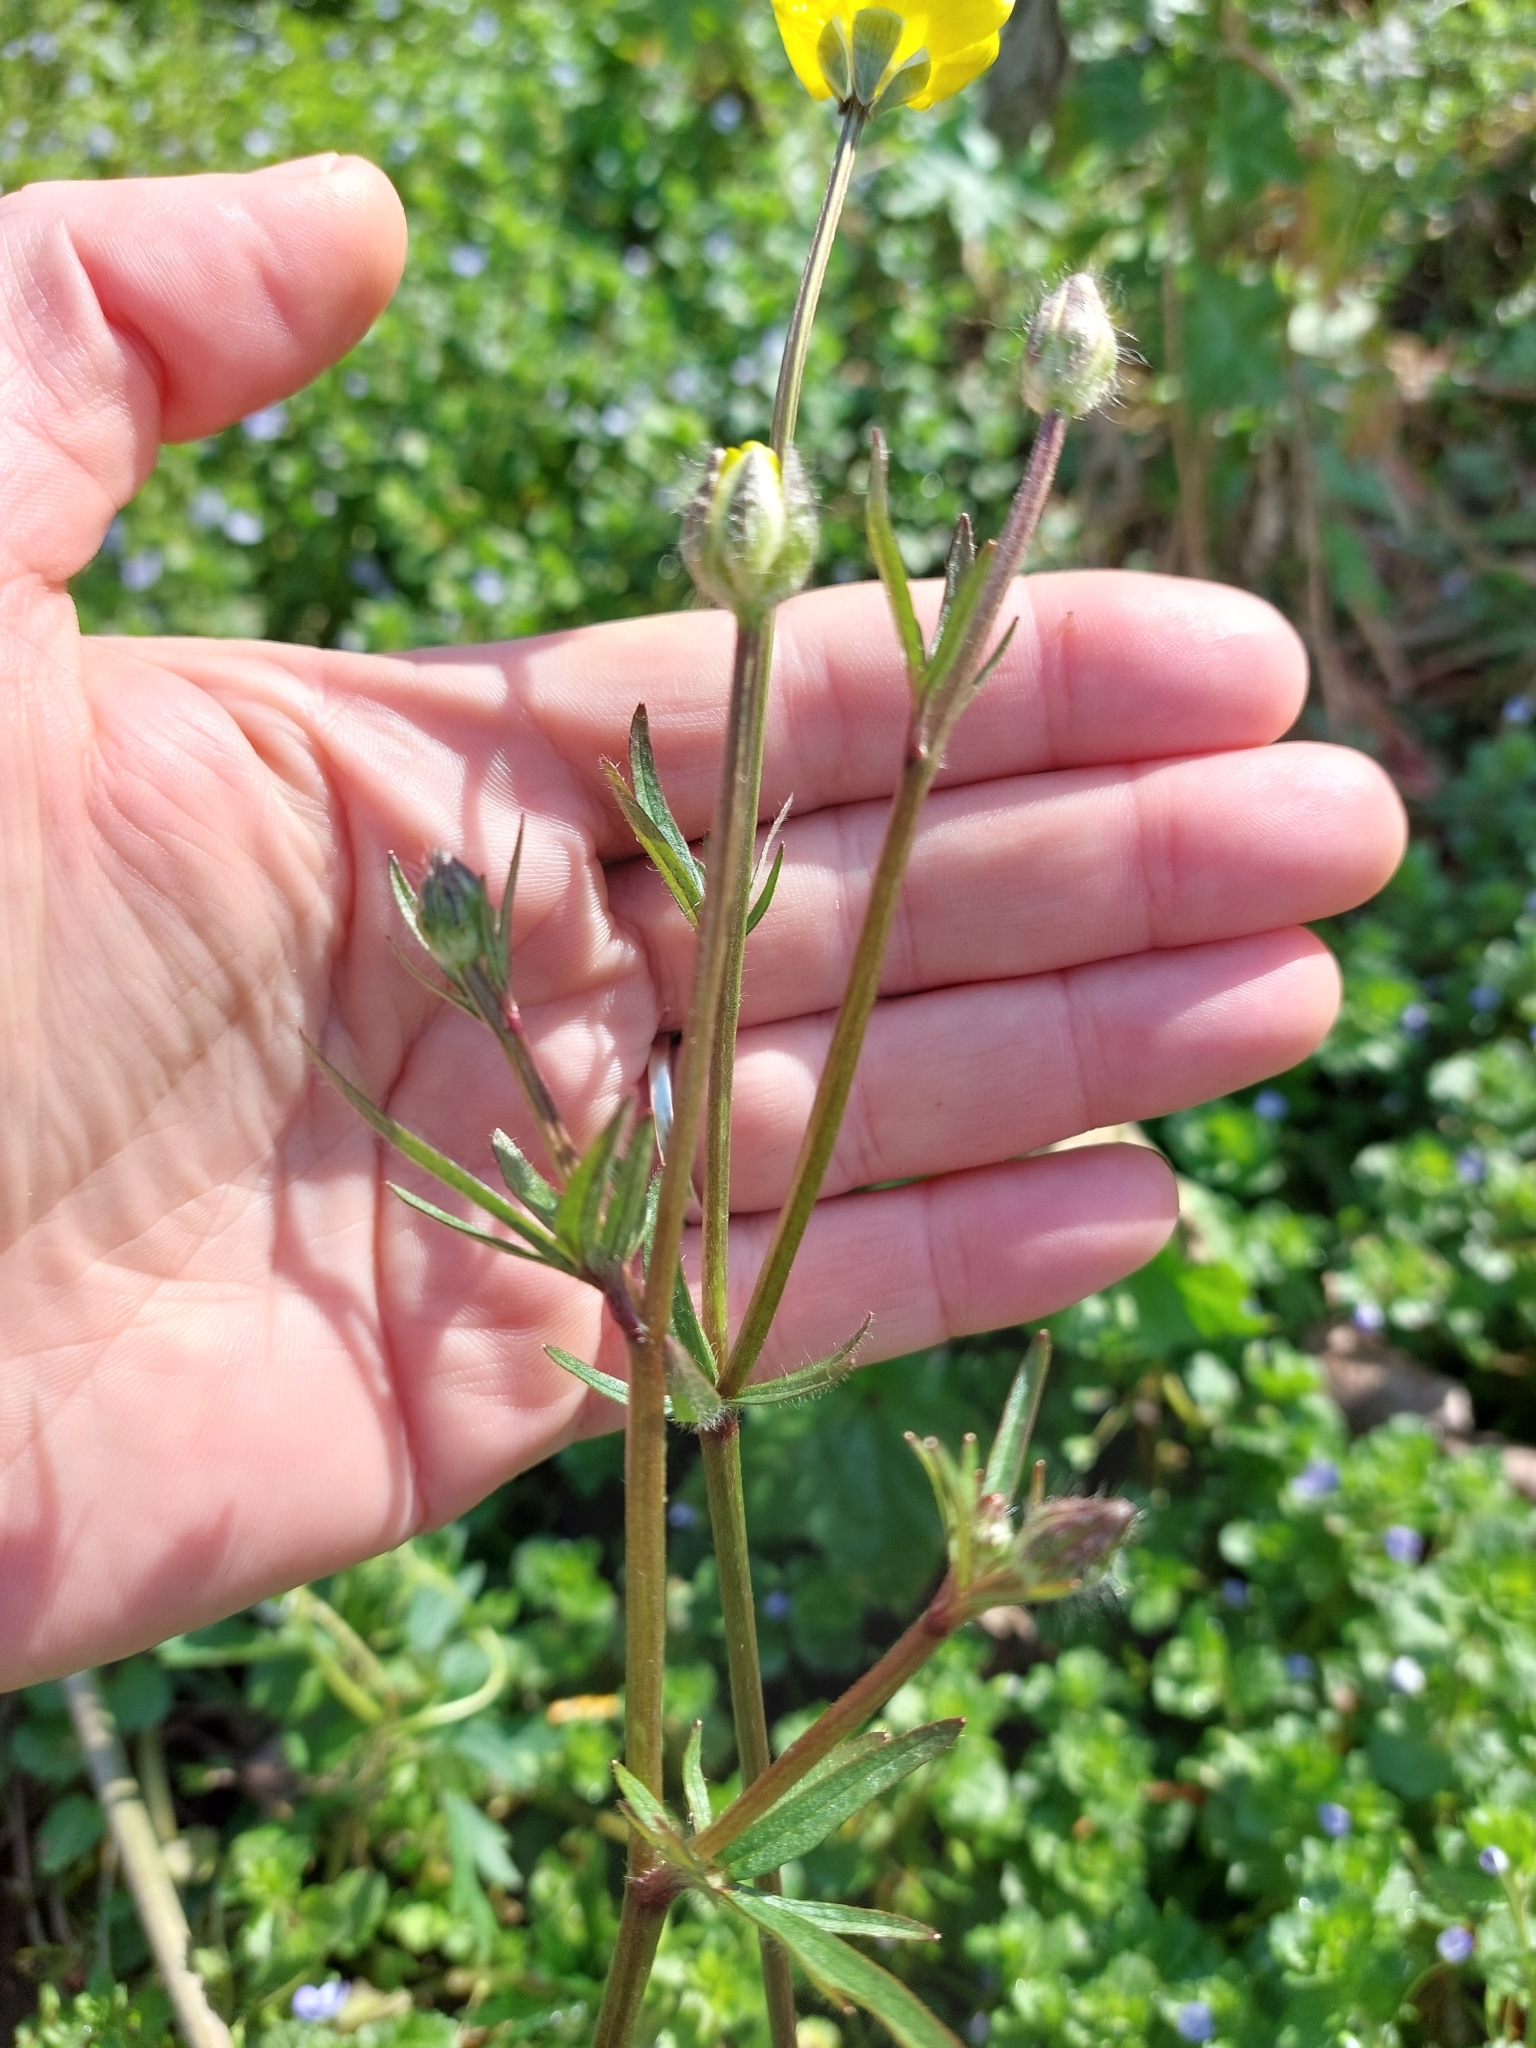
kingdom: Plantae
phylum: Tracheophyta
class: Magnoliopsida
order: Ranunculales
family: Ranunculaceae
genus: Ranunculus
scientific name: Ranunculus bulbosus
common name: Bulbous buttercup
